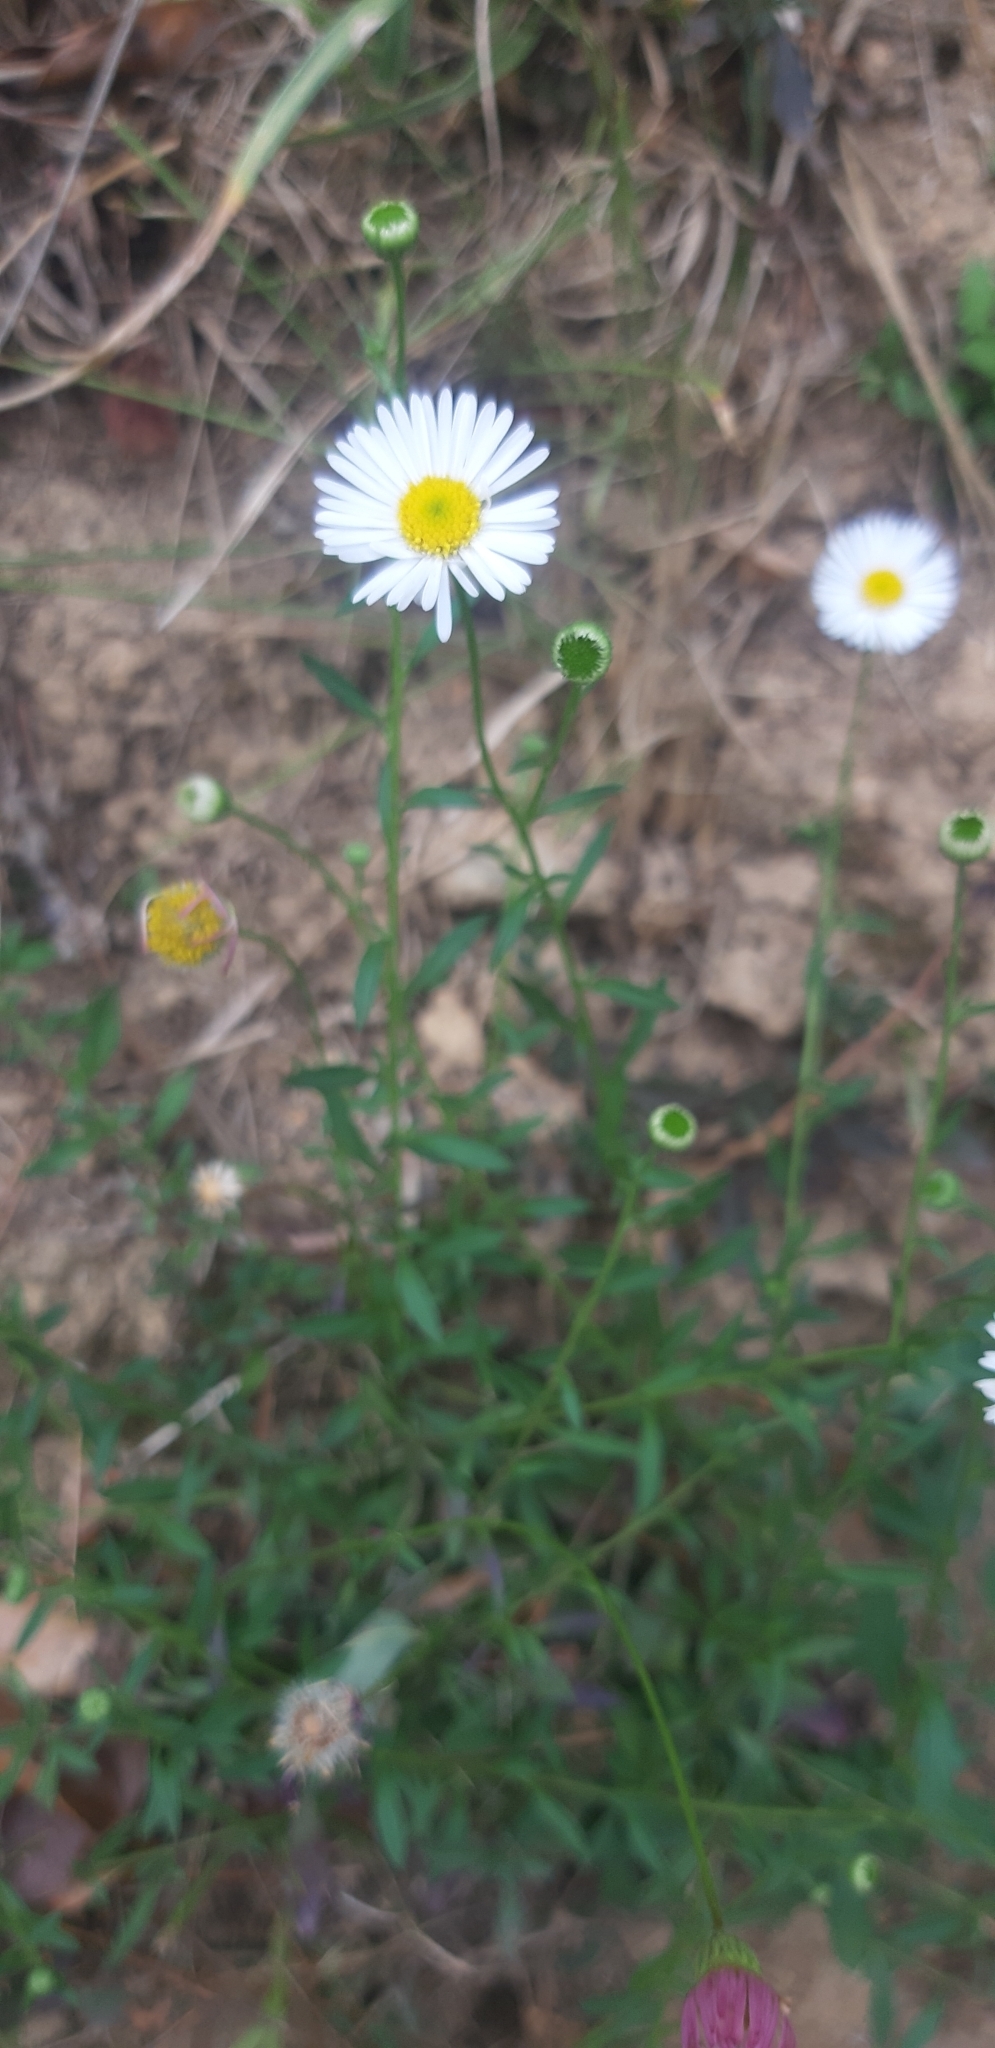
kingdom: Plantae
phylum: Tracheophyta
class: Magnoliopsida
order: Asterales
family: Asteraceae
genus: Erigeron
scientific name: Erigeron karvinskianus
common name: Mexican fleabane
